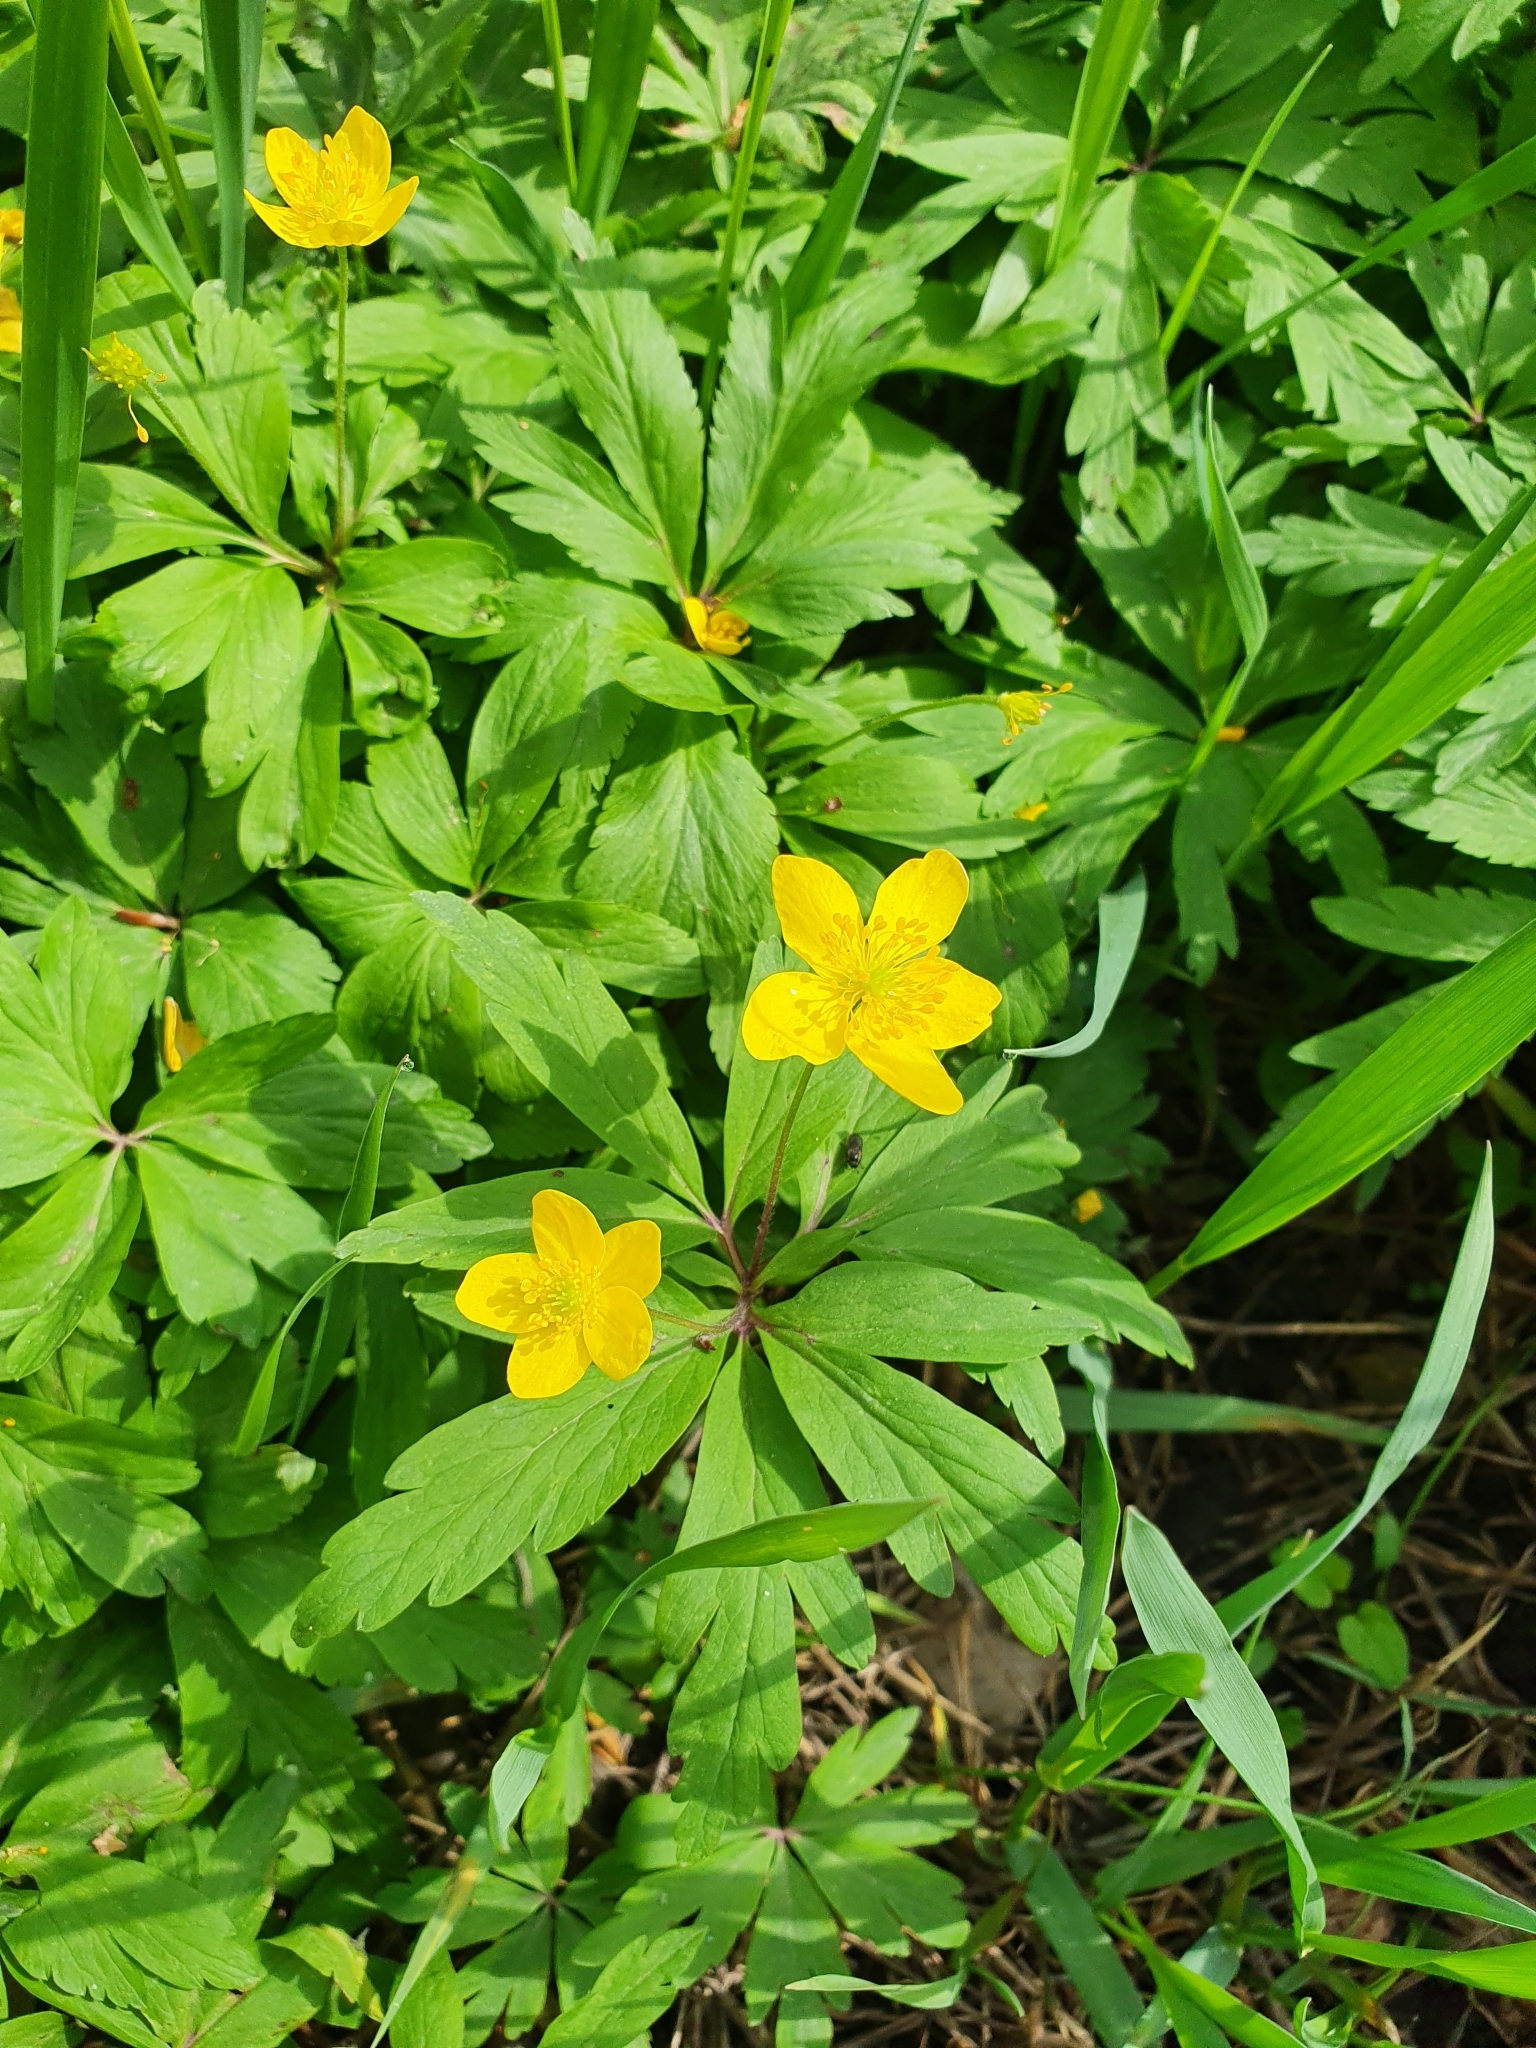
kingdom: Plantae
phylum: Tracheophyta
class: Magnoliopsida
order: Ranunculales
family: Ranunculaceae
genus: Anemone
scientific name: Anemone ranunculoides
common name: Yellow anemone
